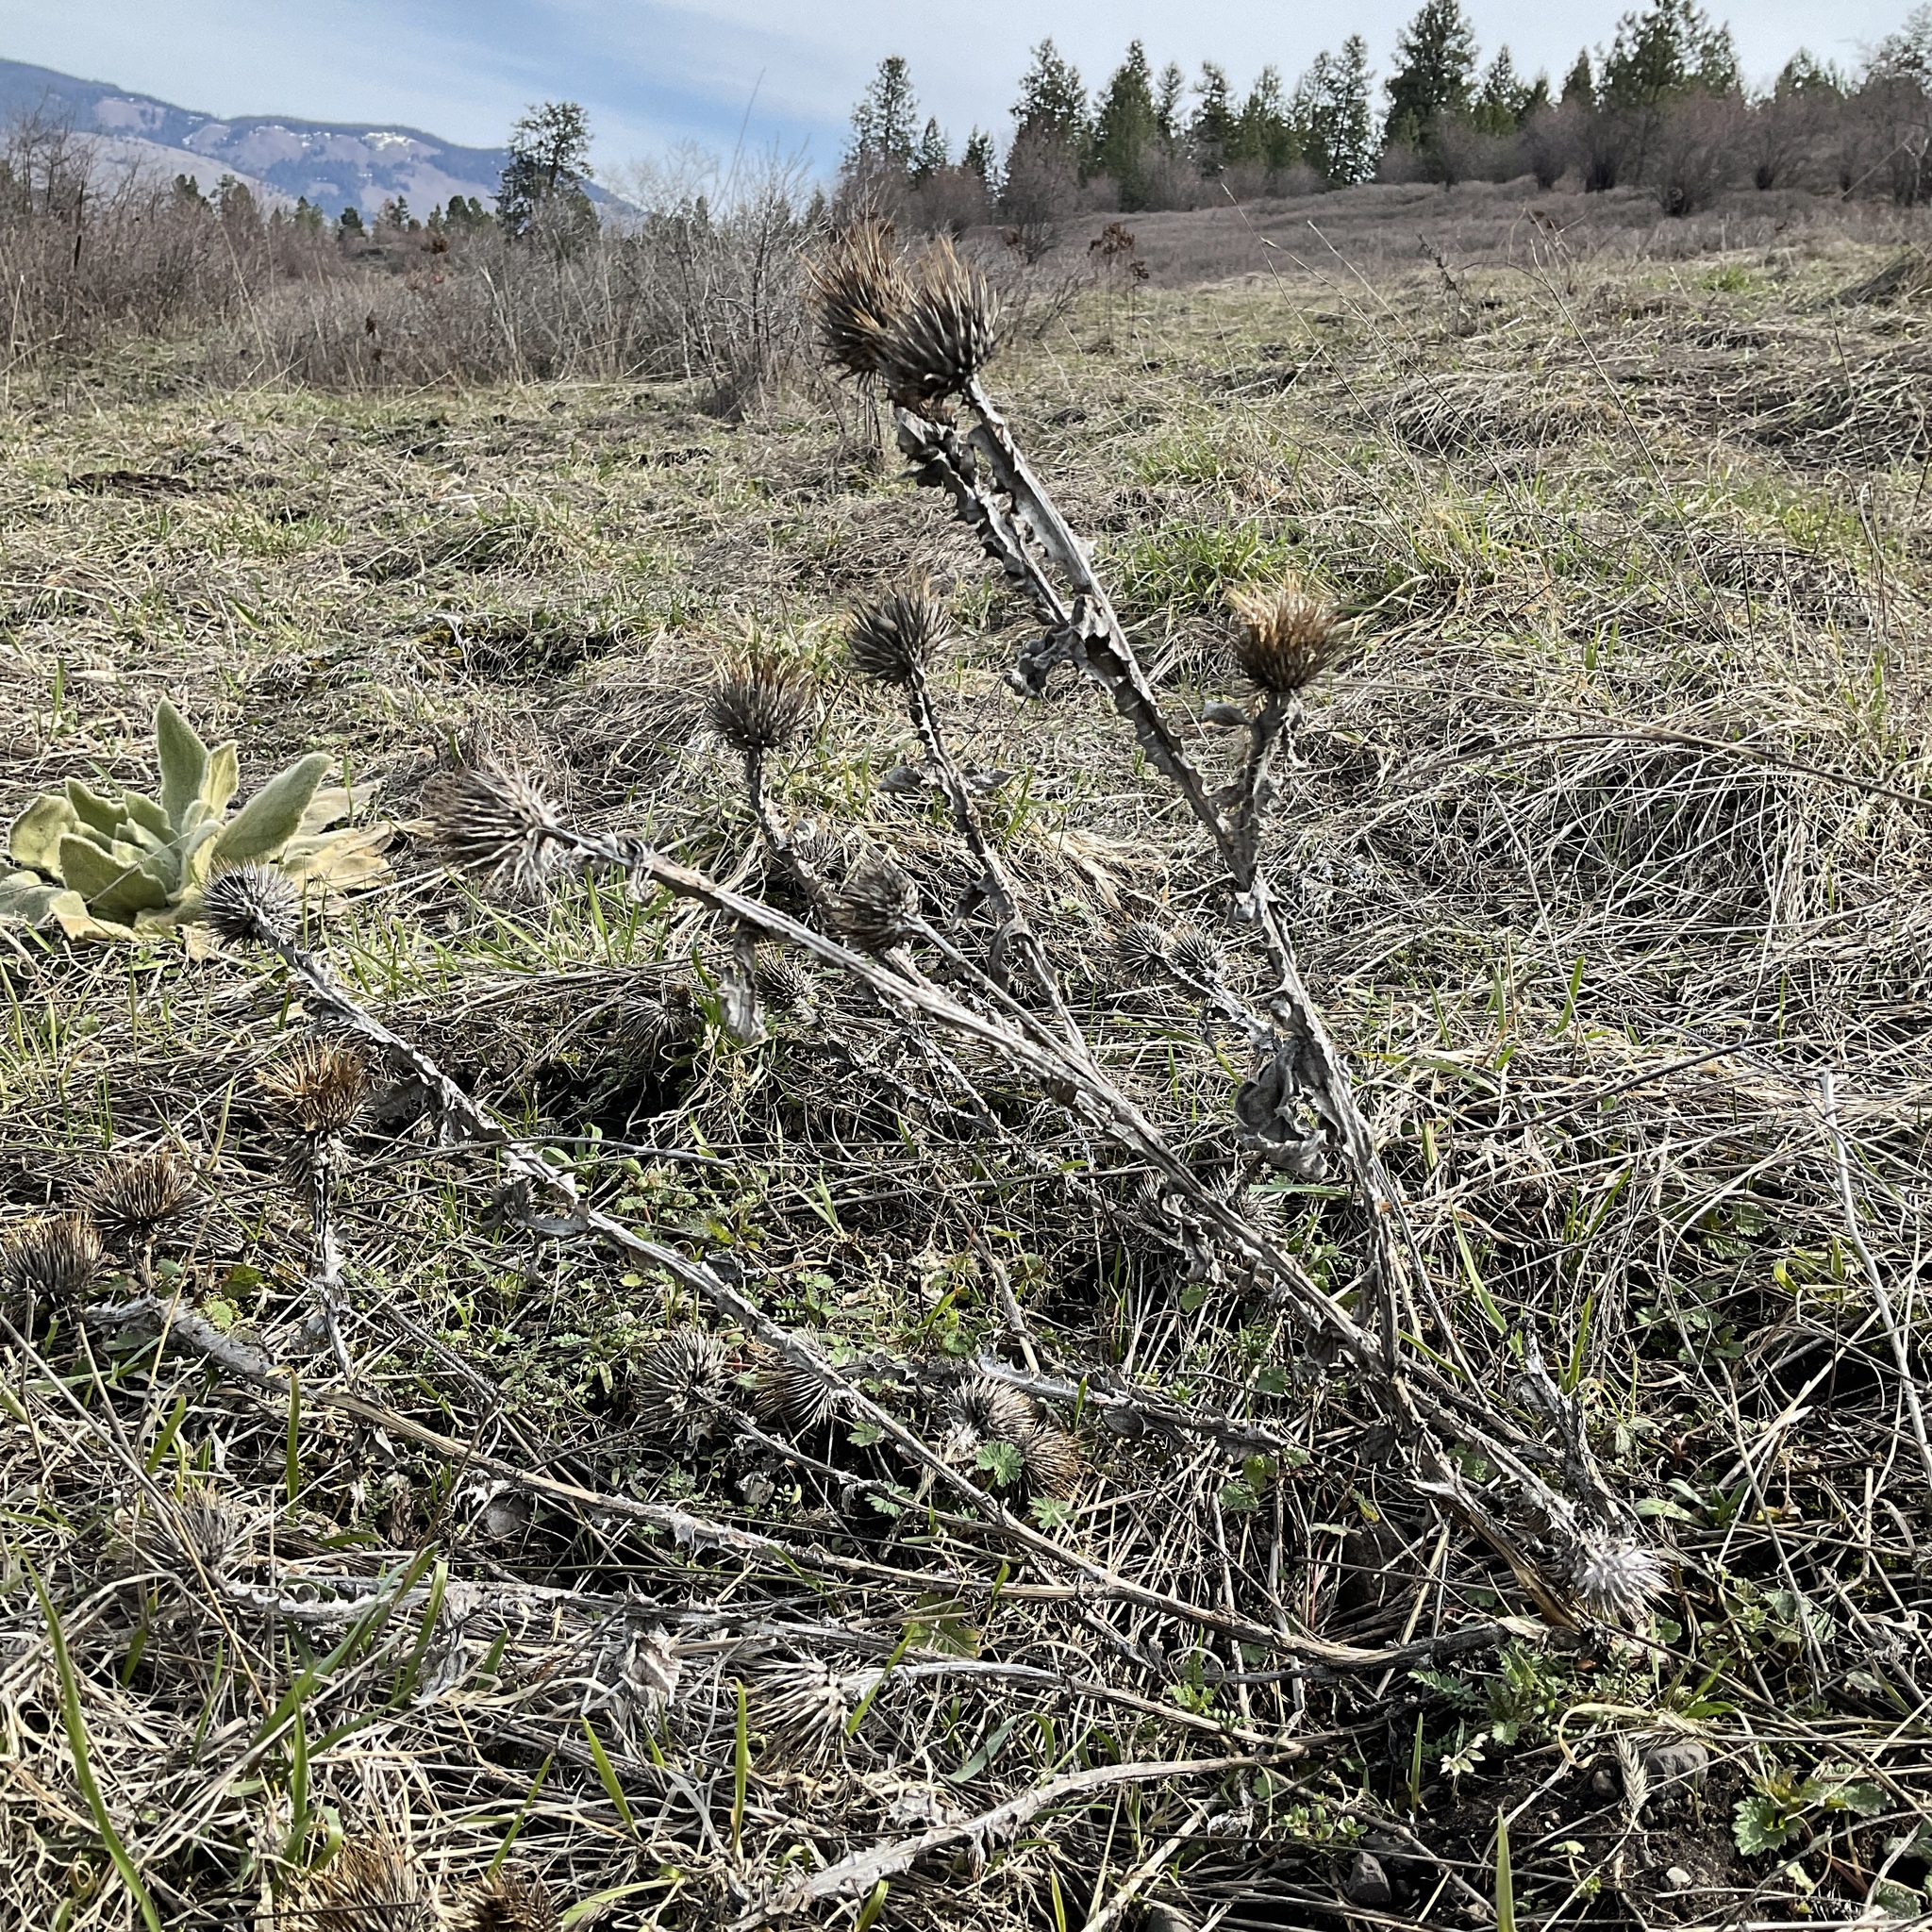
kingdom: Plantae
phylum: Tracheophyta
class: Magnoliopsida
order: Asterales
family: Asteraceae
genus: Onopordum
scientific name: Onopordum acanthium
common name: Scotch thistle
